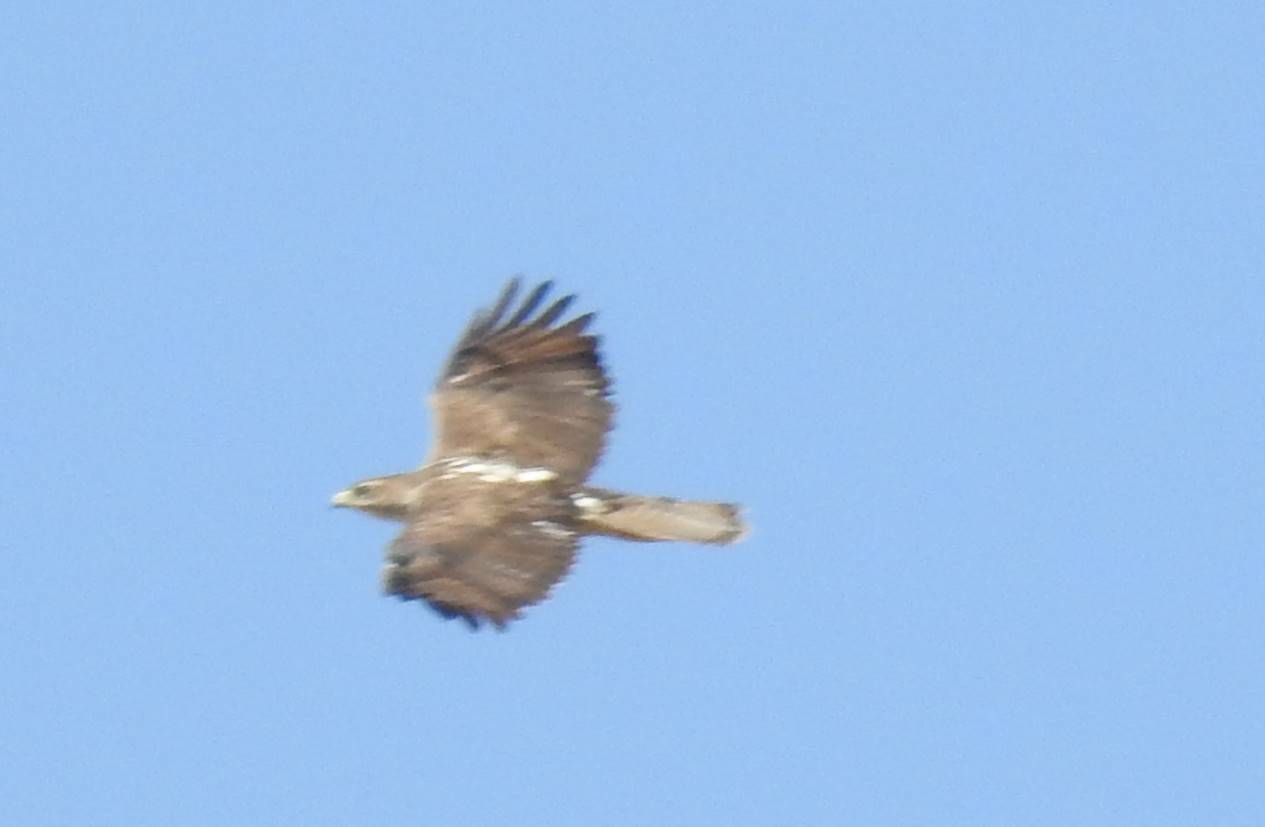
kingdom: Animalia
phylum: Chordata
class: Aves
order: Accipitriformes
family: Accipitridae
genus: Aquila
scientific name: Aquila fasciata
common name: Bonelli's eagle
